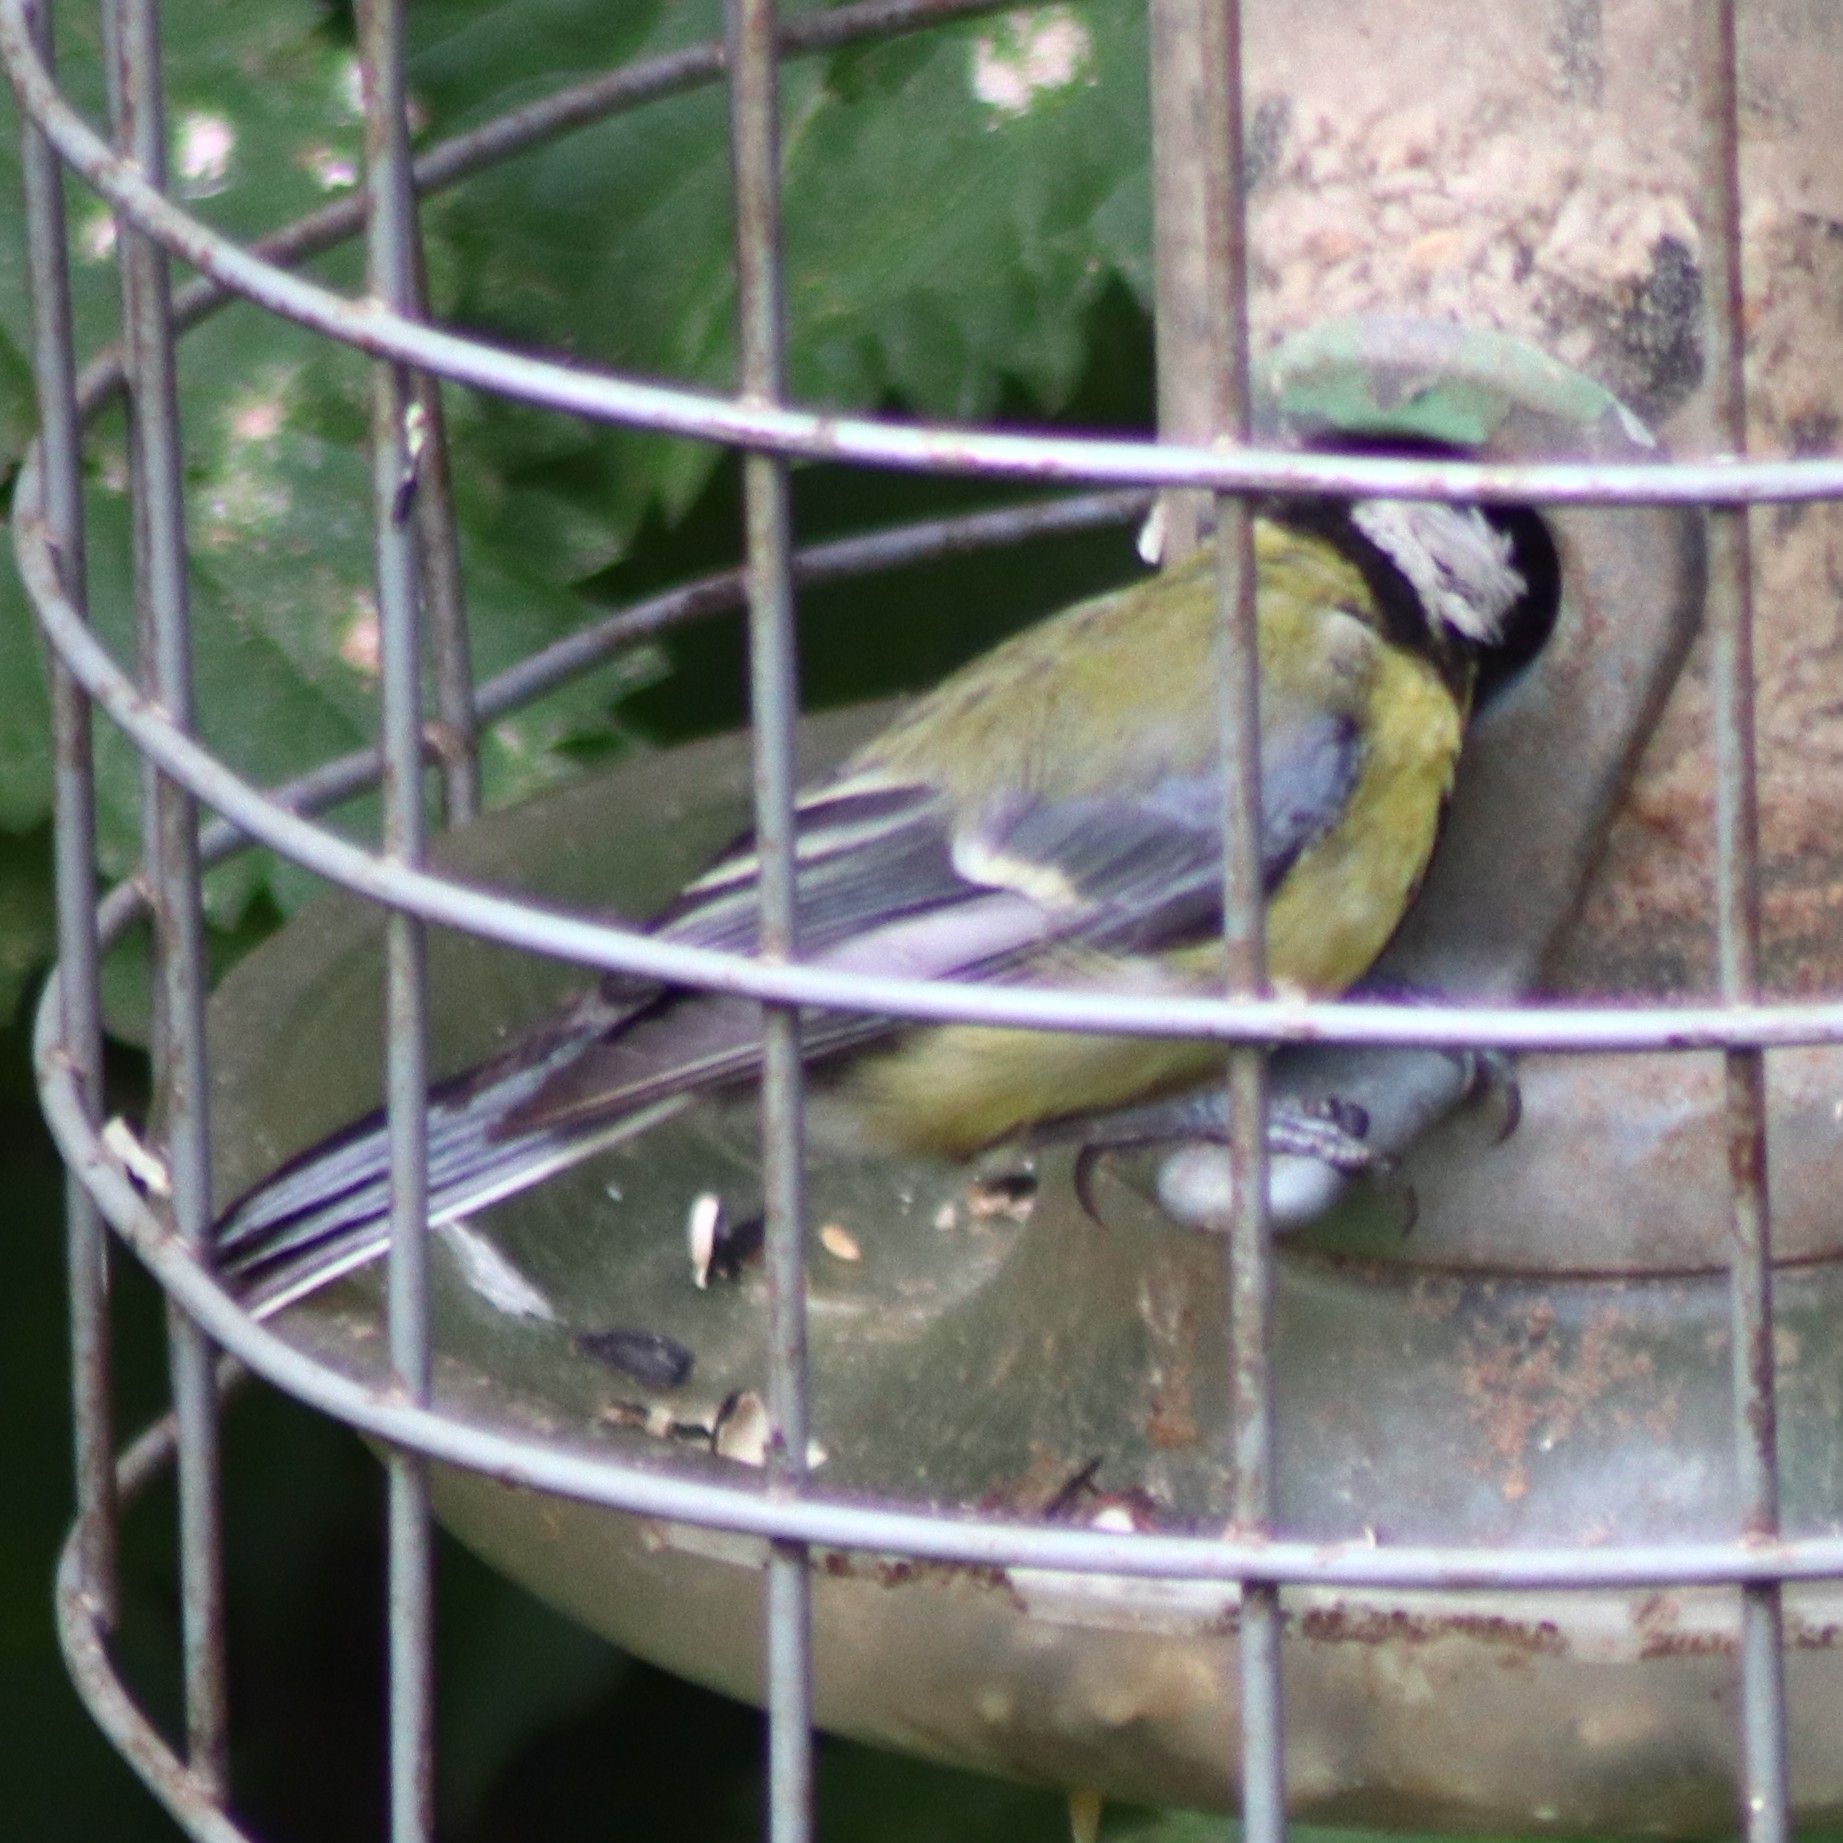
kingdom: Animalia
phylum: Chordata
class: Aves
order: Passeriformes
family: Paridae
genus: Parus
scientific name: Parus major
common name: Great tit
